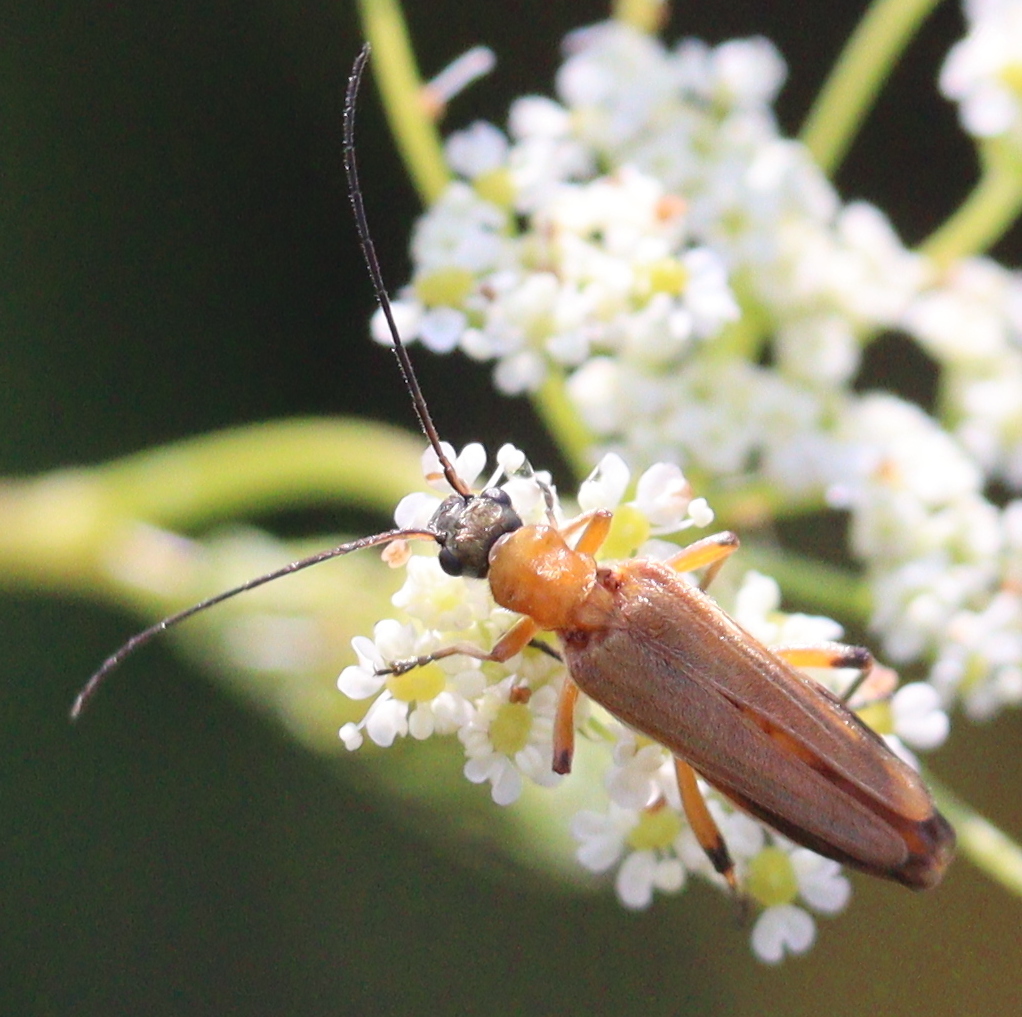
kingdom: Animalia
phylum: Arthropoda
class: Insecta
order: Coleoptera
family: Oedemeridae
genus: Oedemera
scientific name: Oedemera podagrariae
